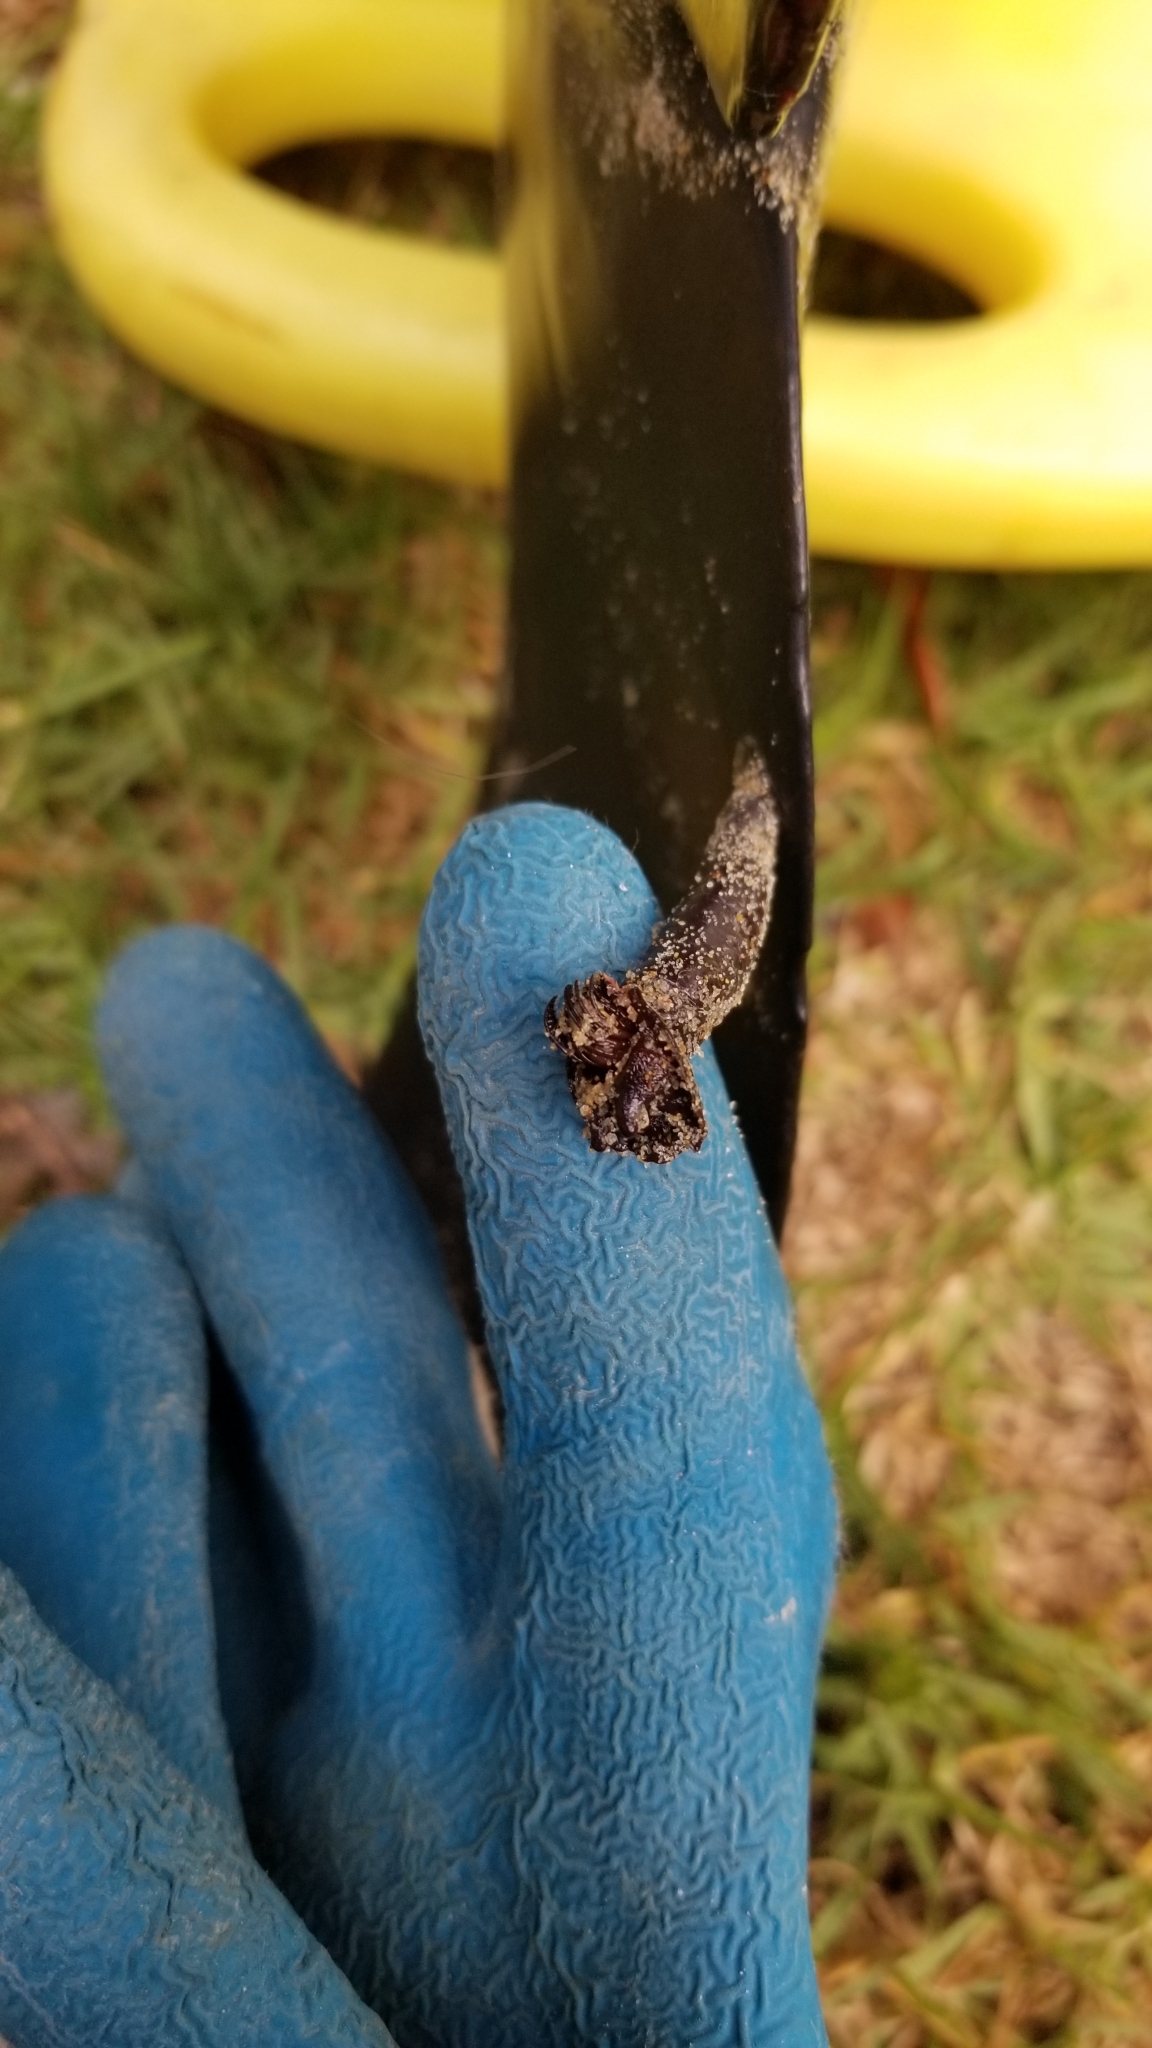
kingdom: Animalia
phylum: Arthropoda
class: Maxillopoda
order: Sessilia
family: Coronulidae
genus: Xenobalanus
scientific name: Xenobalanus globicipitis
